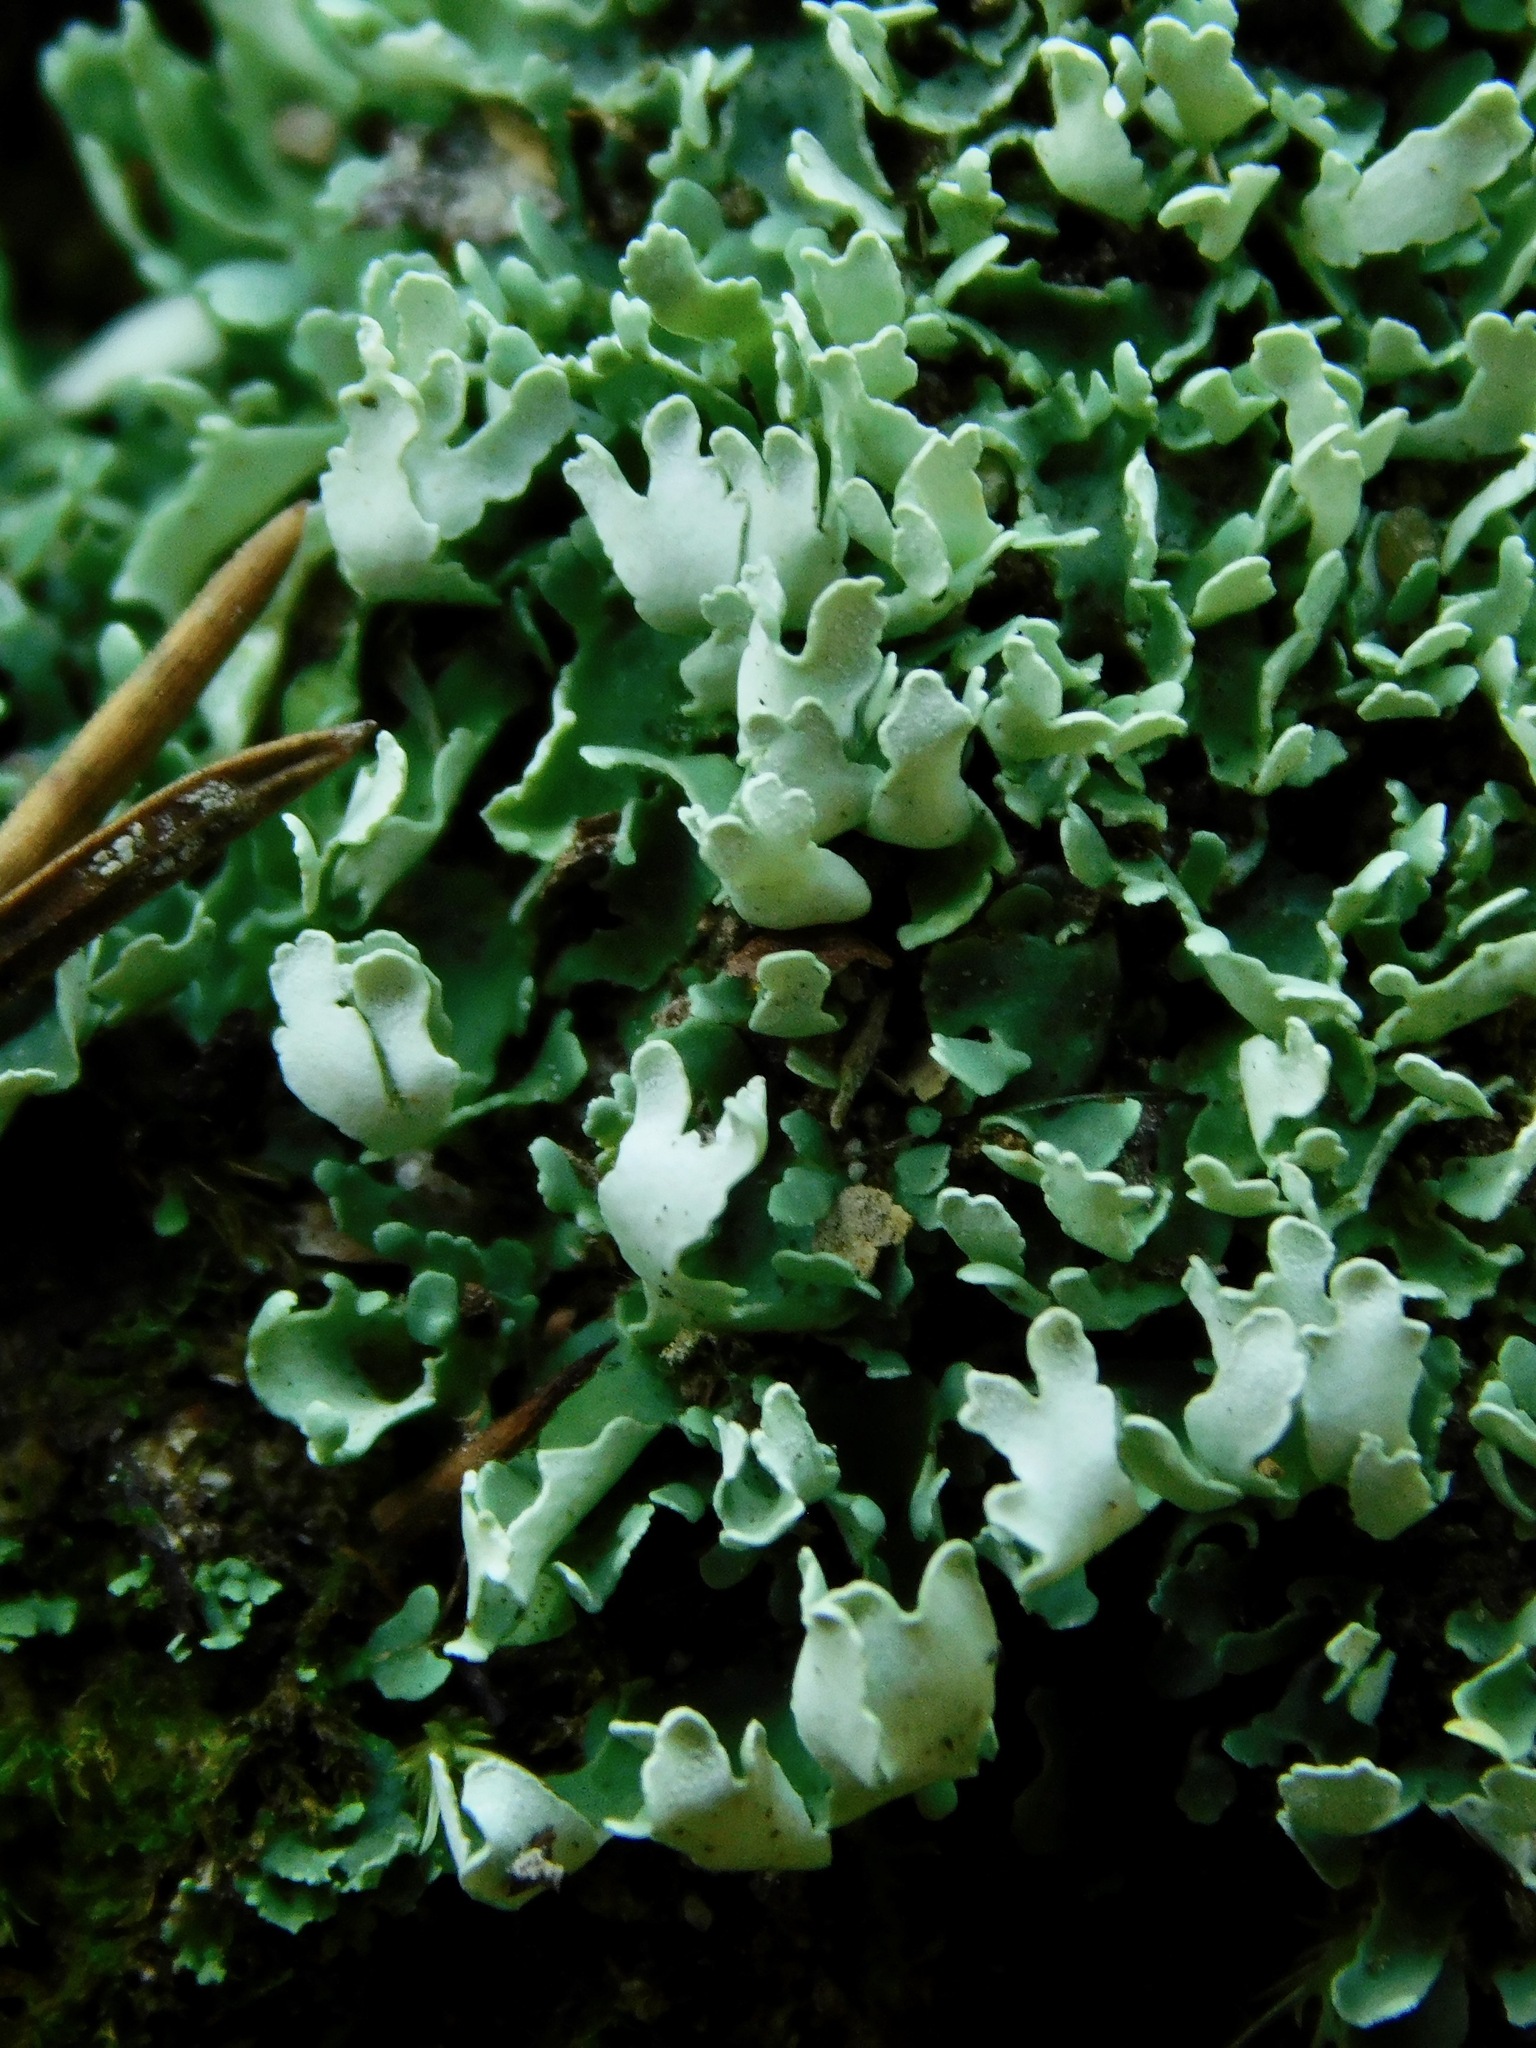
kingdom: Fungi
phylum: Ascomycota
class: Lecanoromycetes
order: Lecanorales
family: Cladoniaceae
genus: Cladonia
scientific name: Cladonia apodocarpa
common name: Stalkless cladonia
